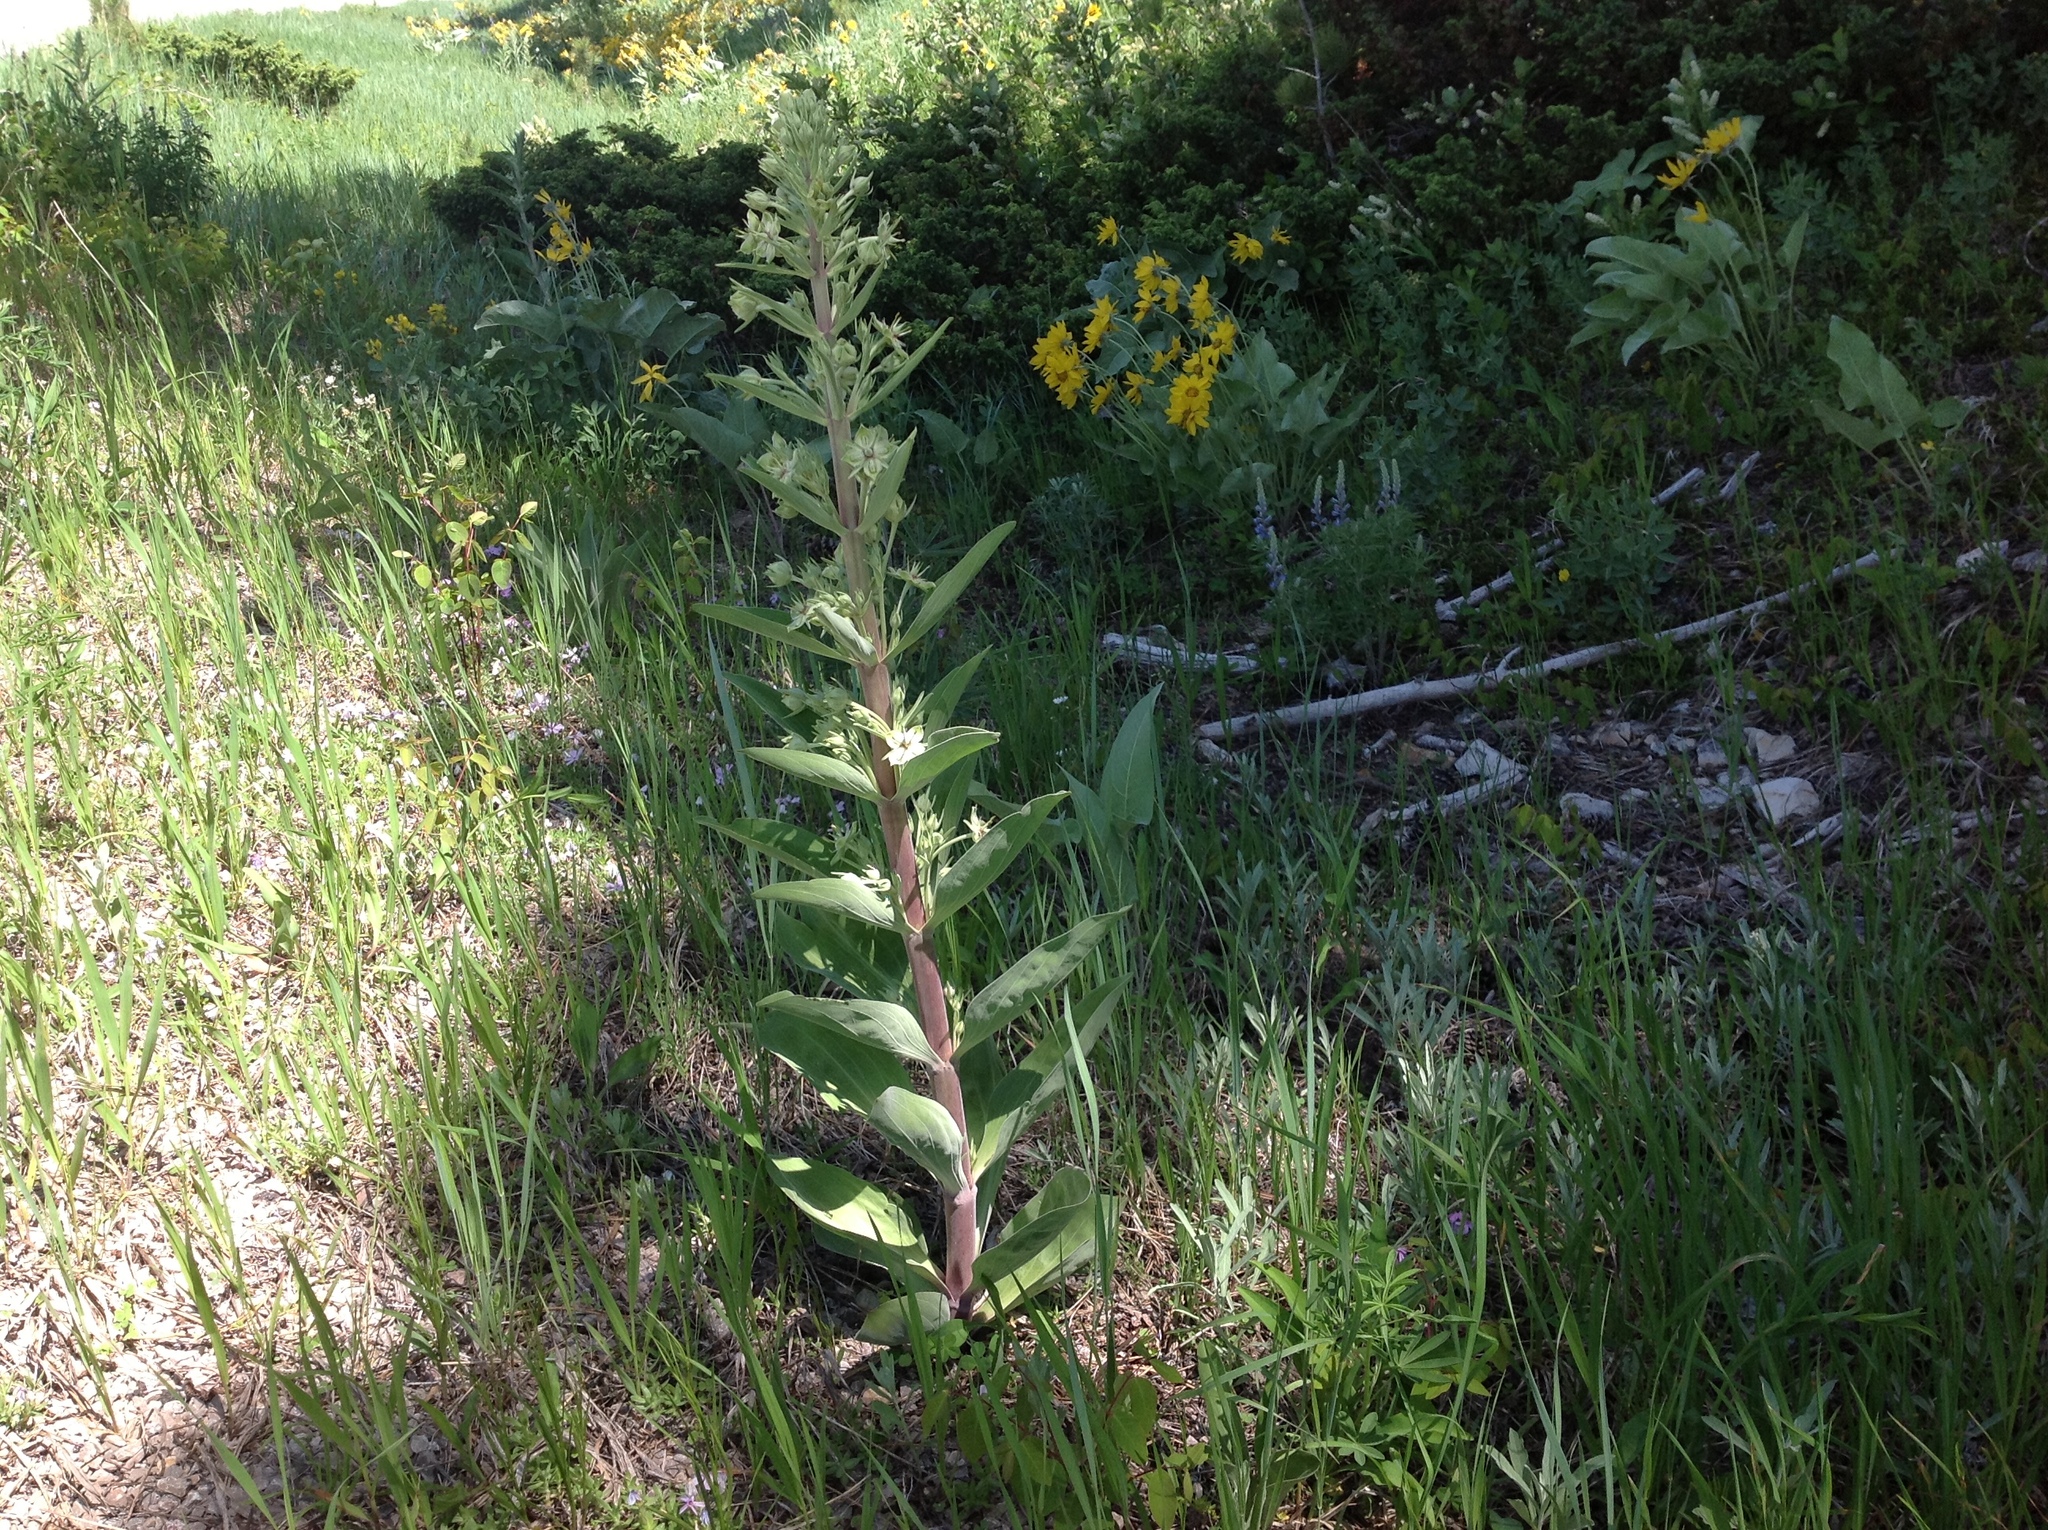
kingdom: Plantae
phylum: Tracheophyta
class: Magnoliopsida
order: Gentianales
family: Gentianaceae
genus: Frasera
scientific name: Frasera speciosa
